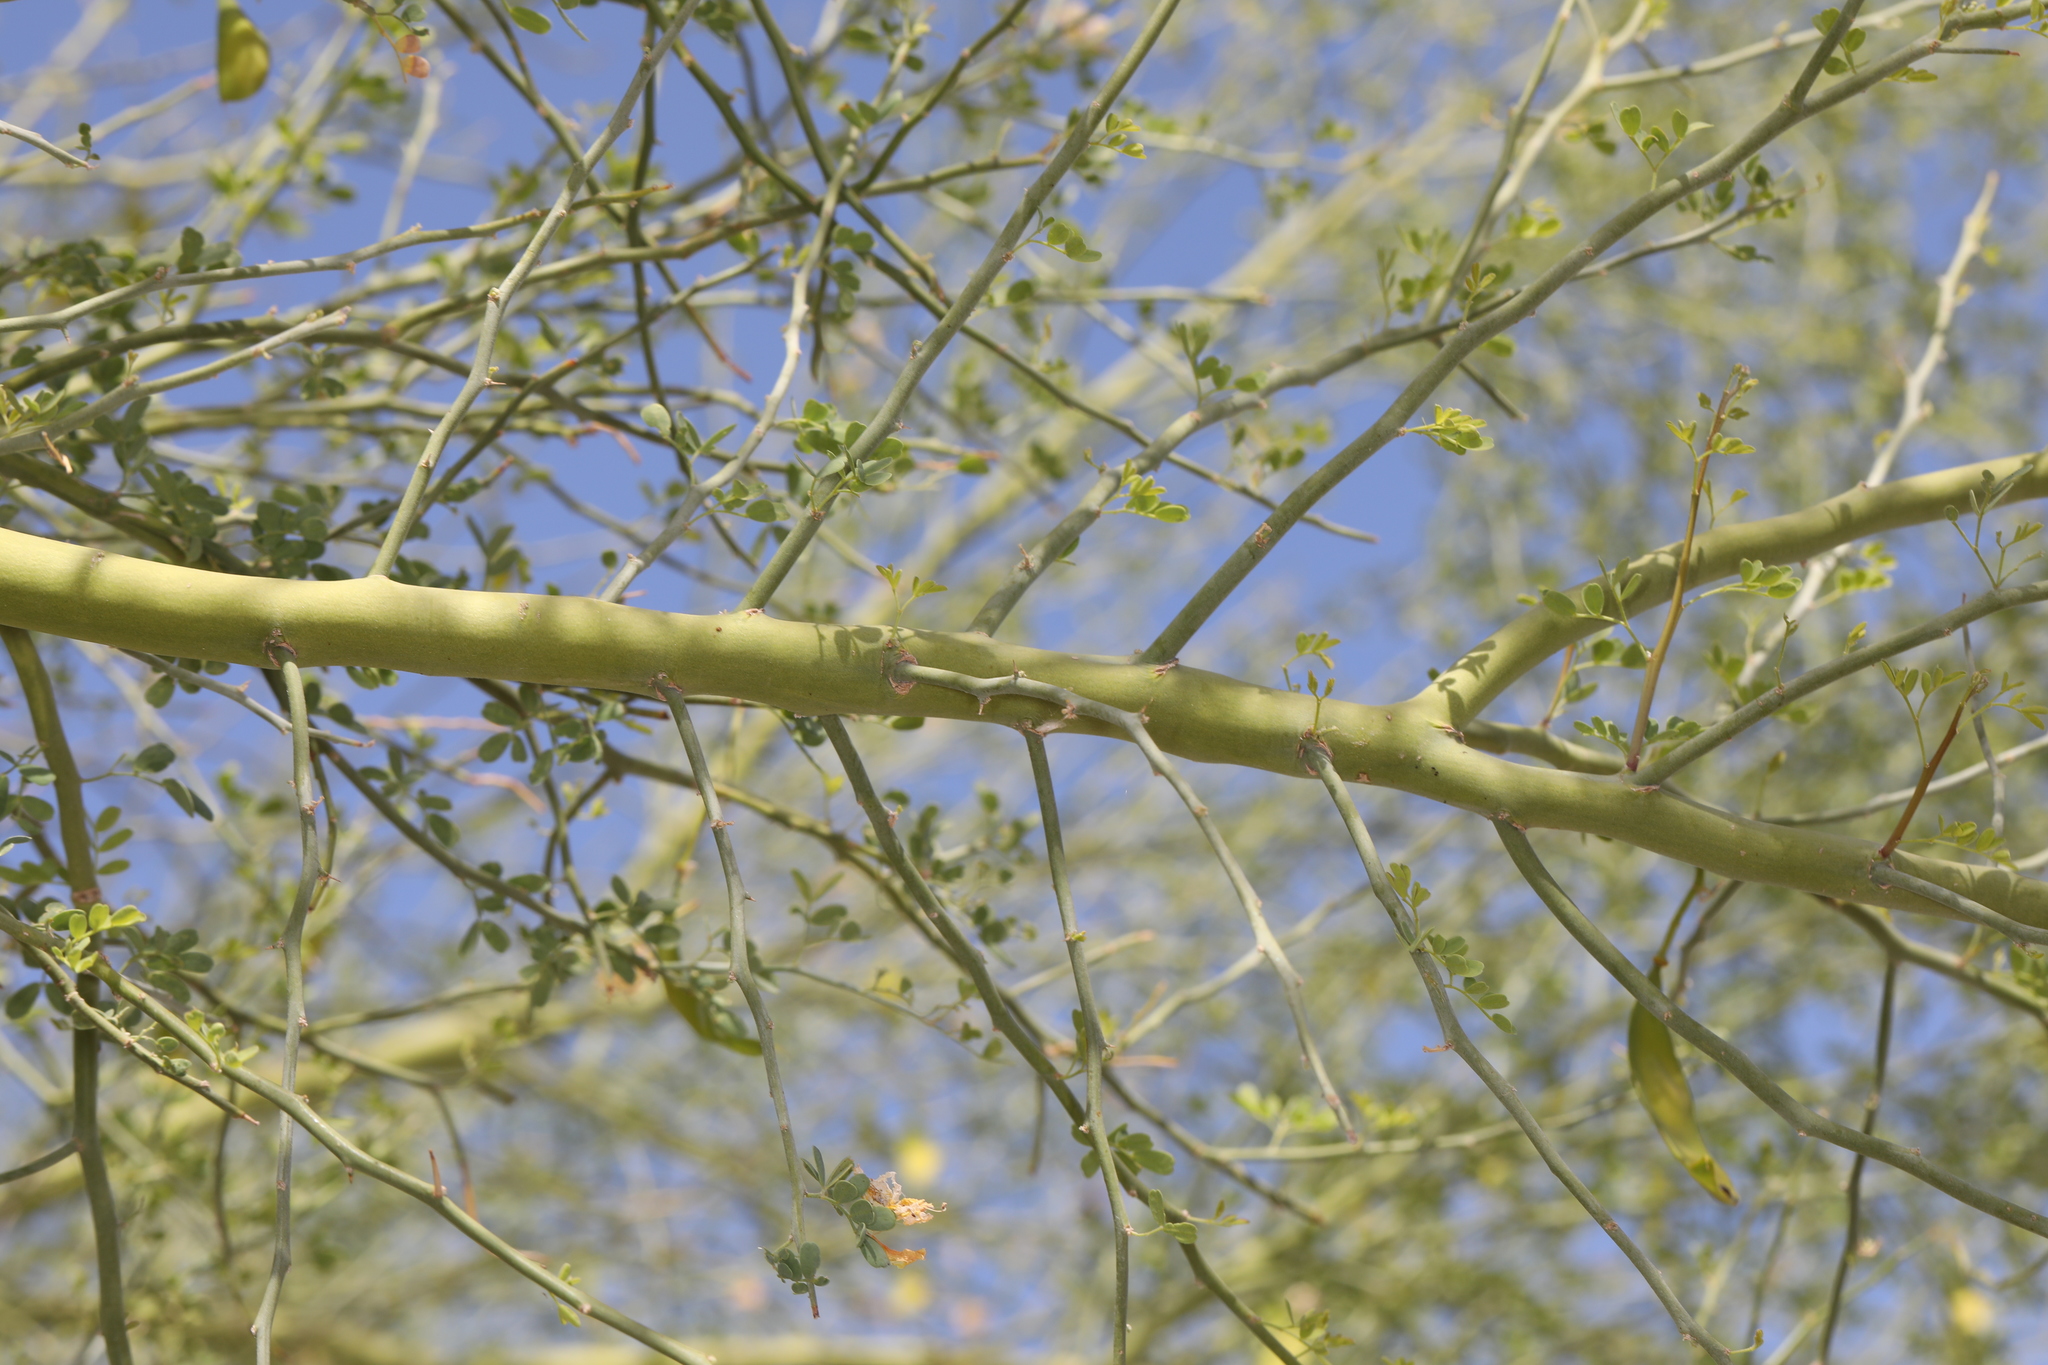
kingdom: Plantae
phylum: Tracheophyta
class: Magnoliopsida
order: Fabales
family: Fabaceae
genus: Parkinsonia
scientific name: Parkinsonia florida
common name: Blue paloverde
